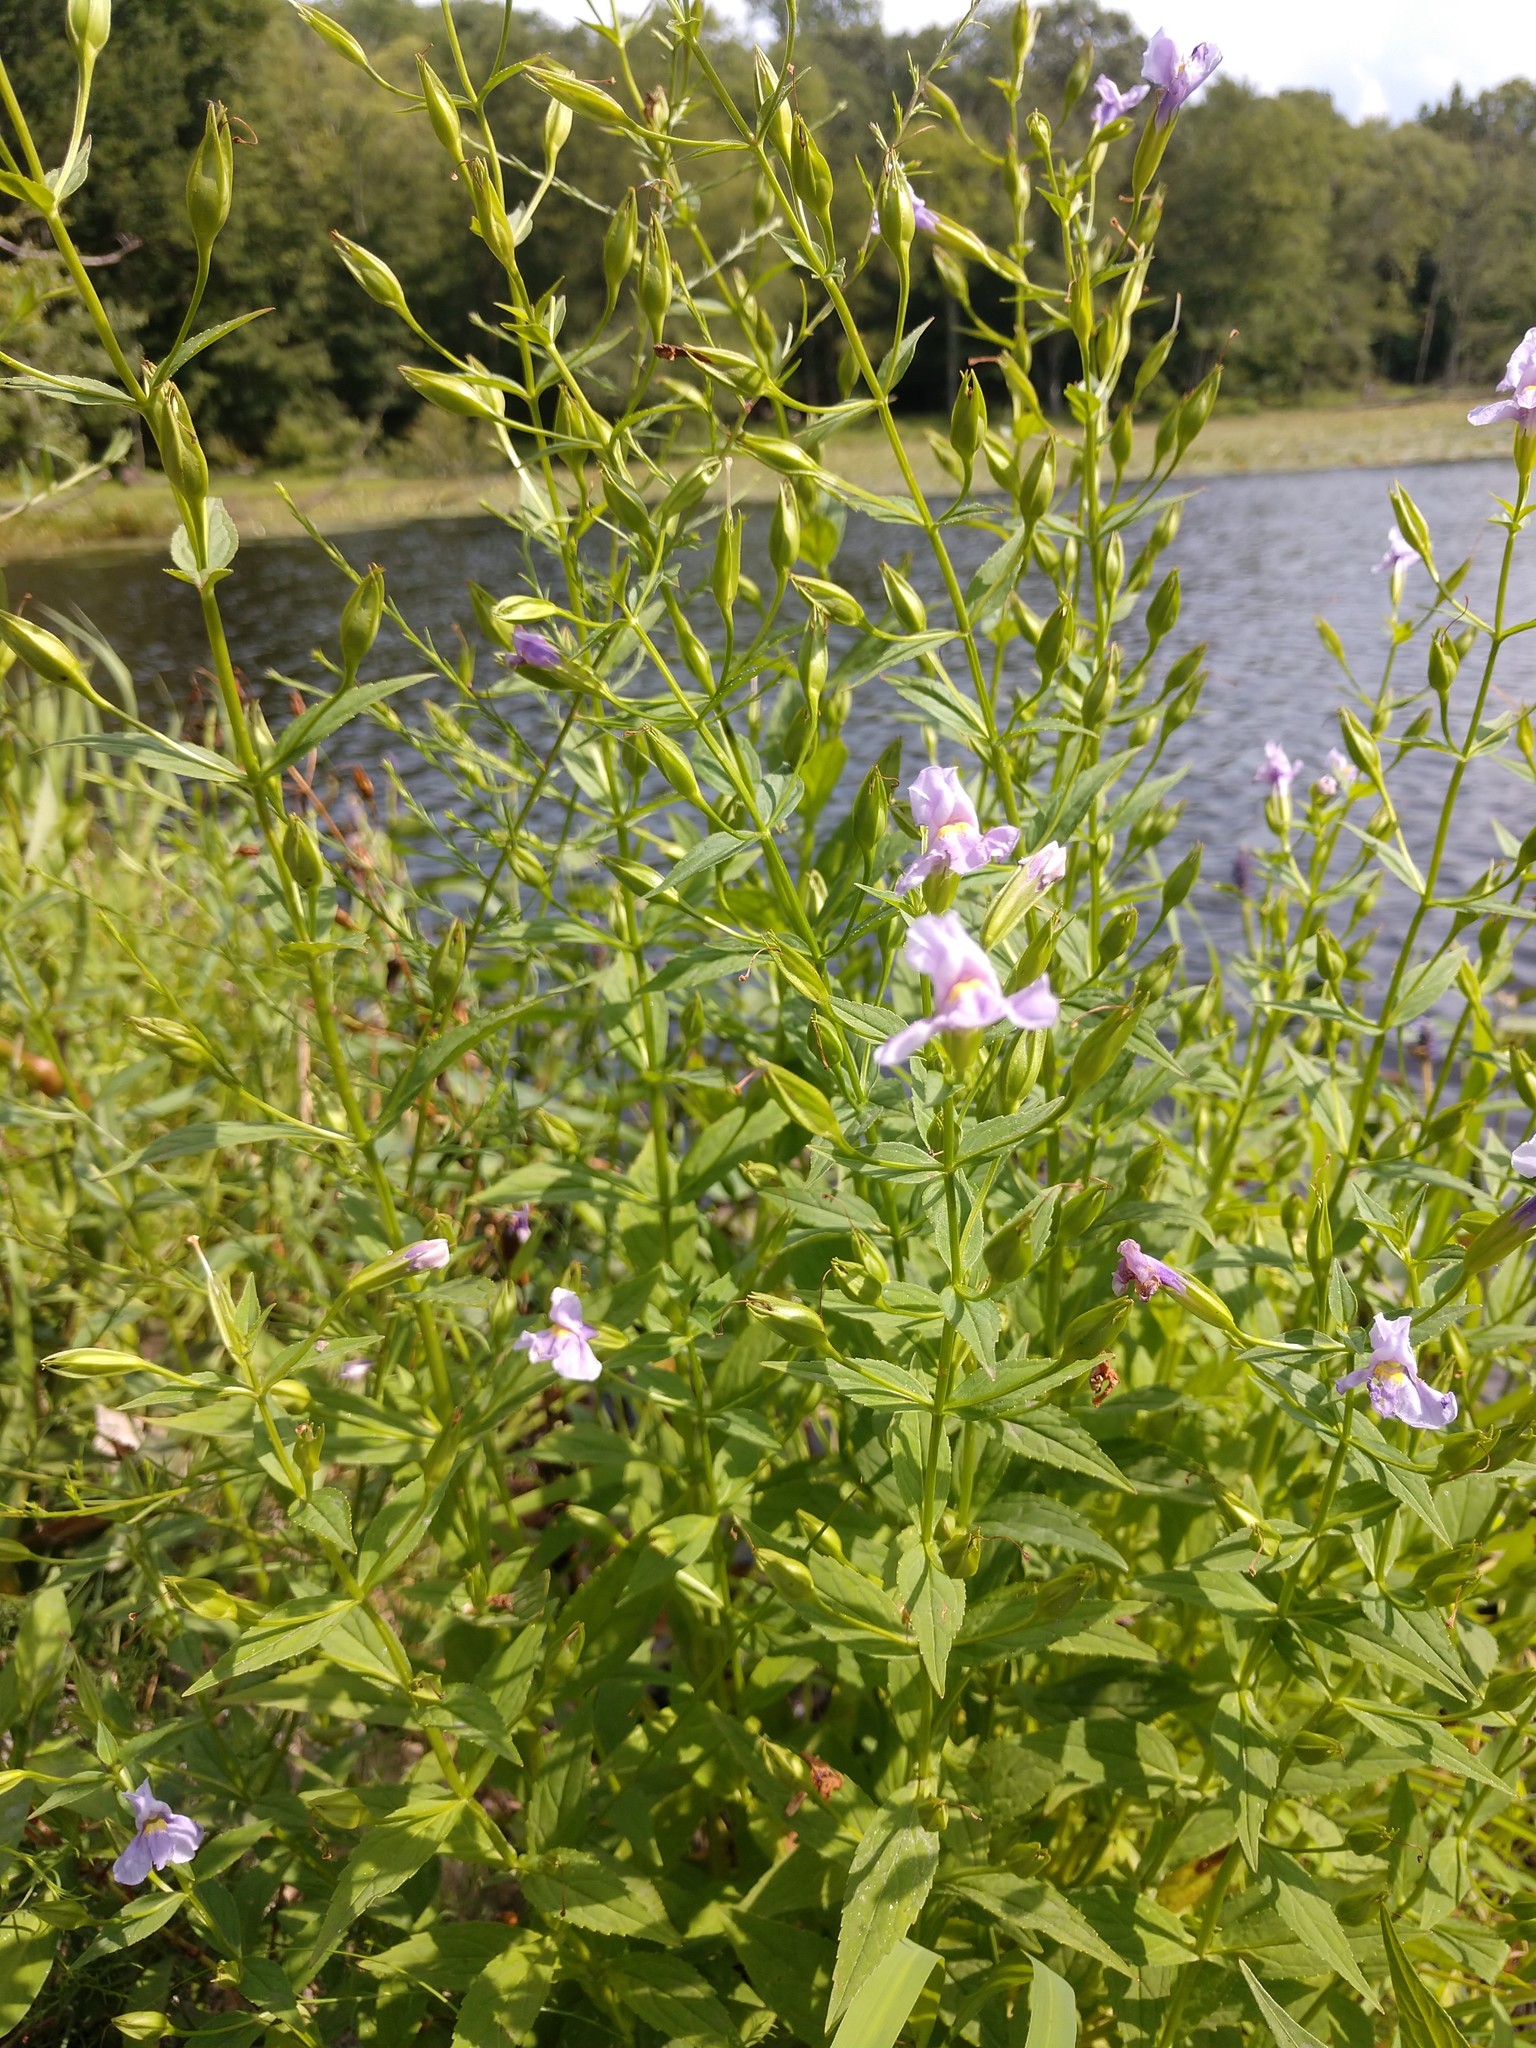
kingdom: Plantae
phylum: Tracheophyta
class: Magnoliopsida
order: Lamiales
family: Phrymaceae
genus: Mimulus
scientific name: Mimulus ringens
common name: Allegheny monkeyflower
